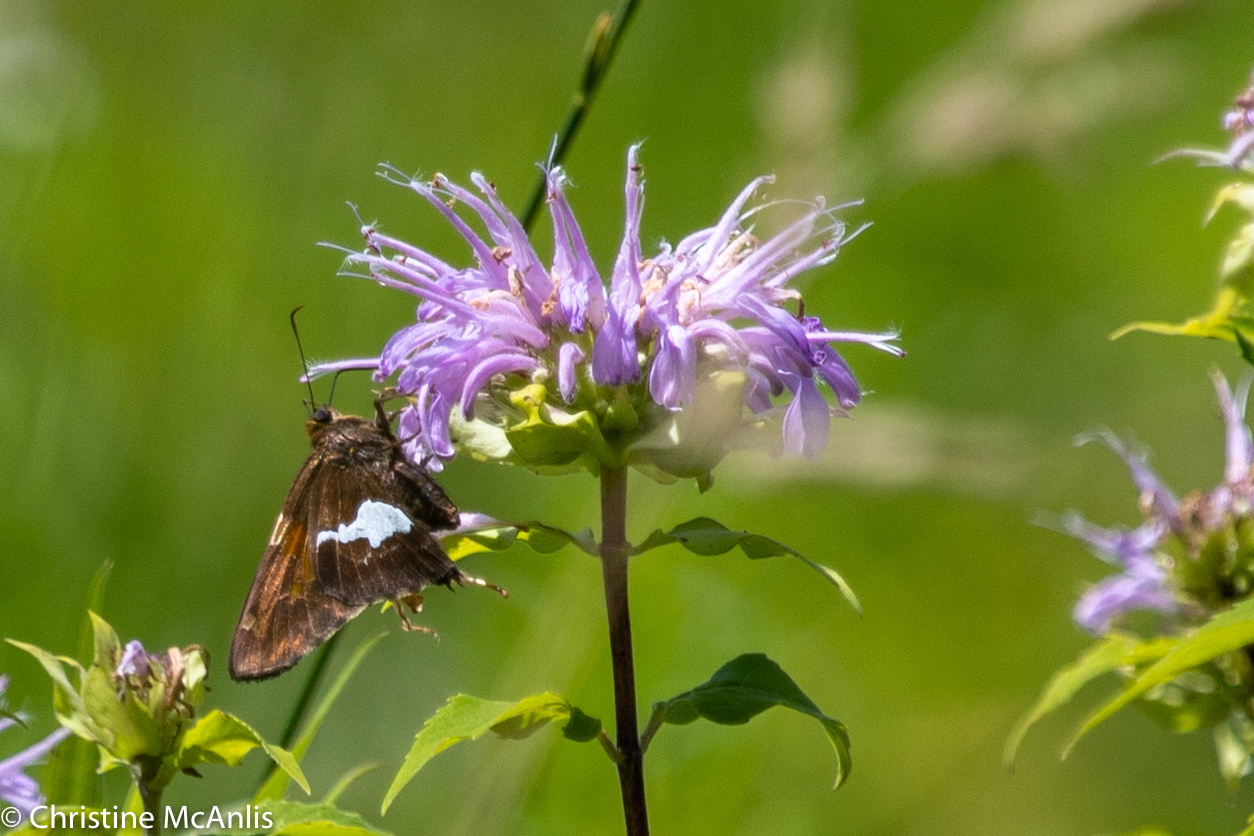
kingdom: Animalia
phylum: Arthropoda
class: Insecta
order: Lepidoptera
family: Hesperiidae
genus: Epargyreus
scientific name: Epargyreus clarus
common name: Silver-spotted skipper
